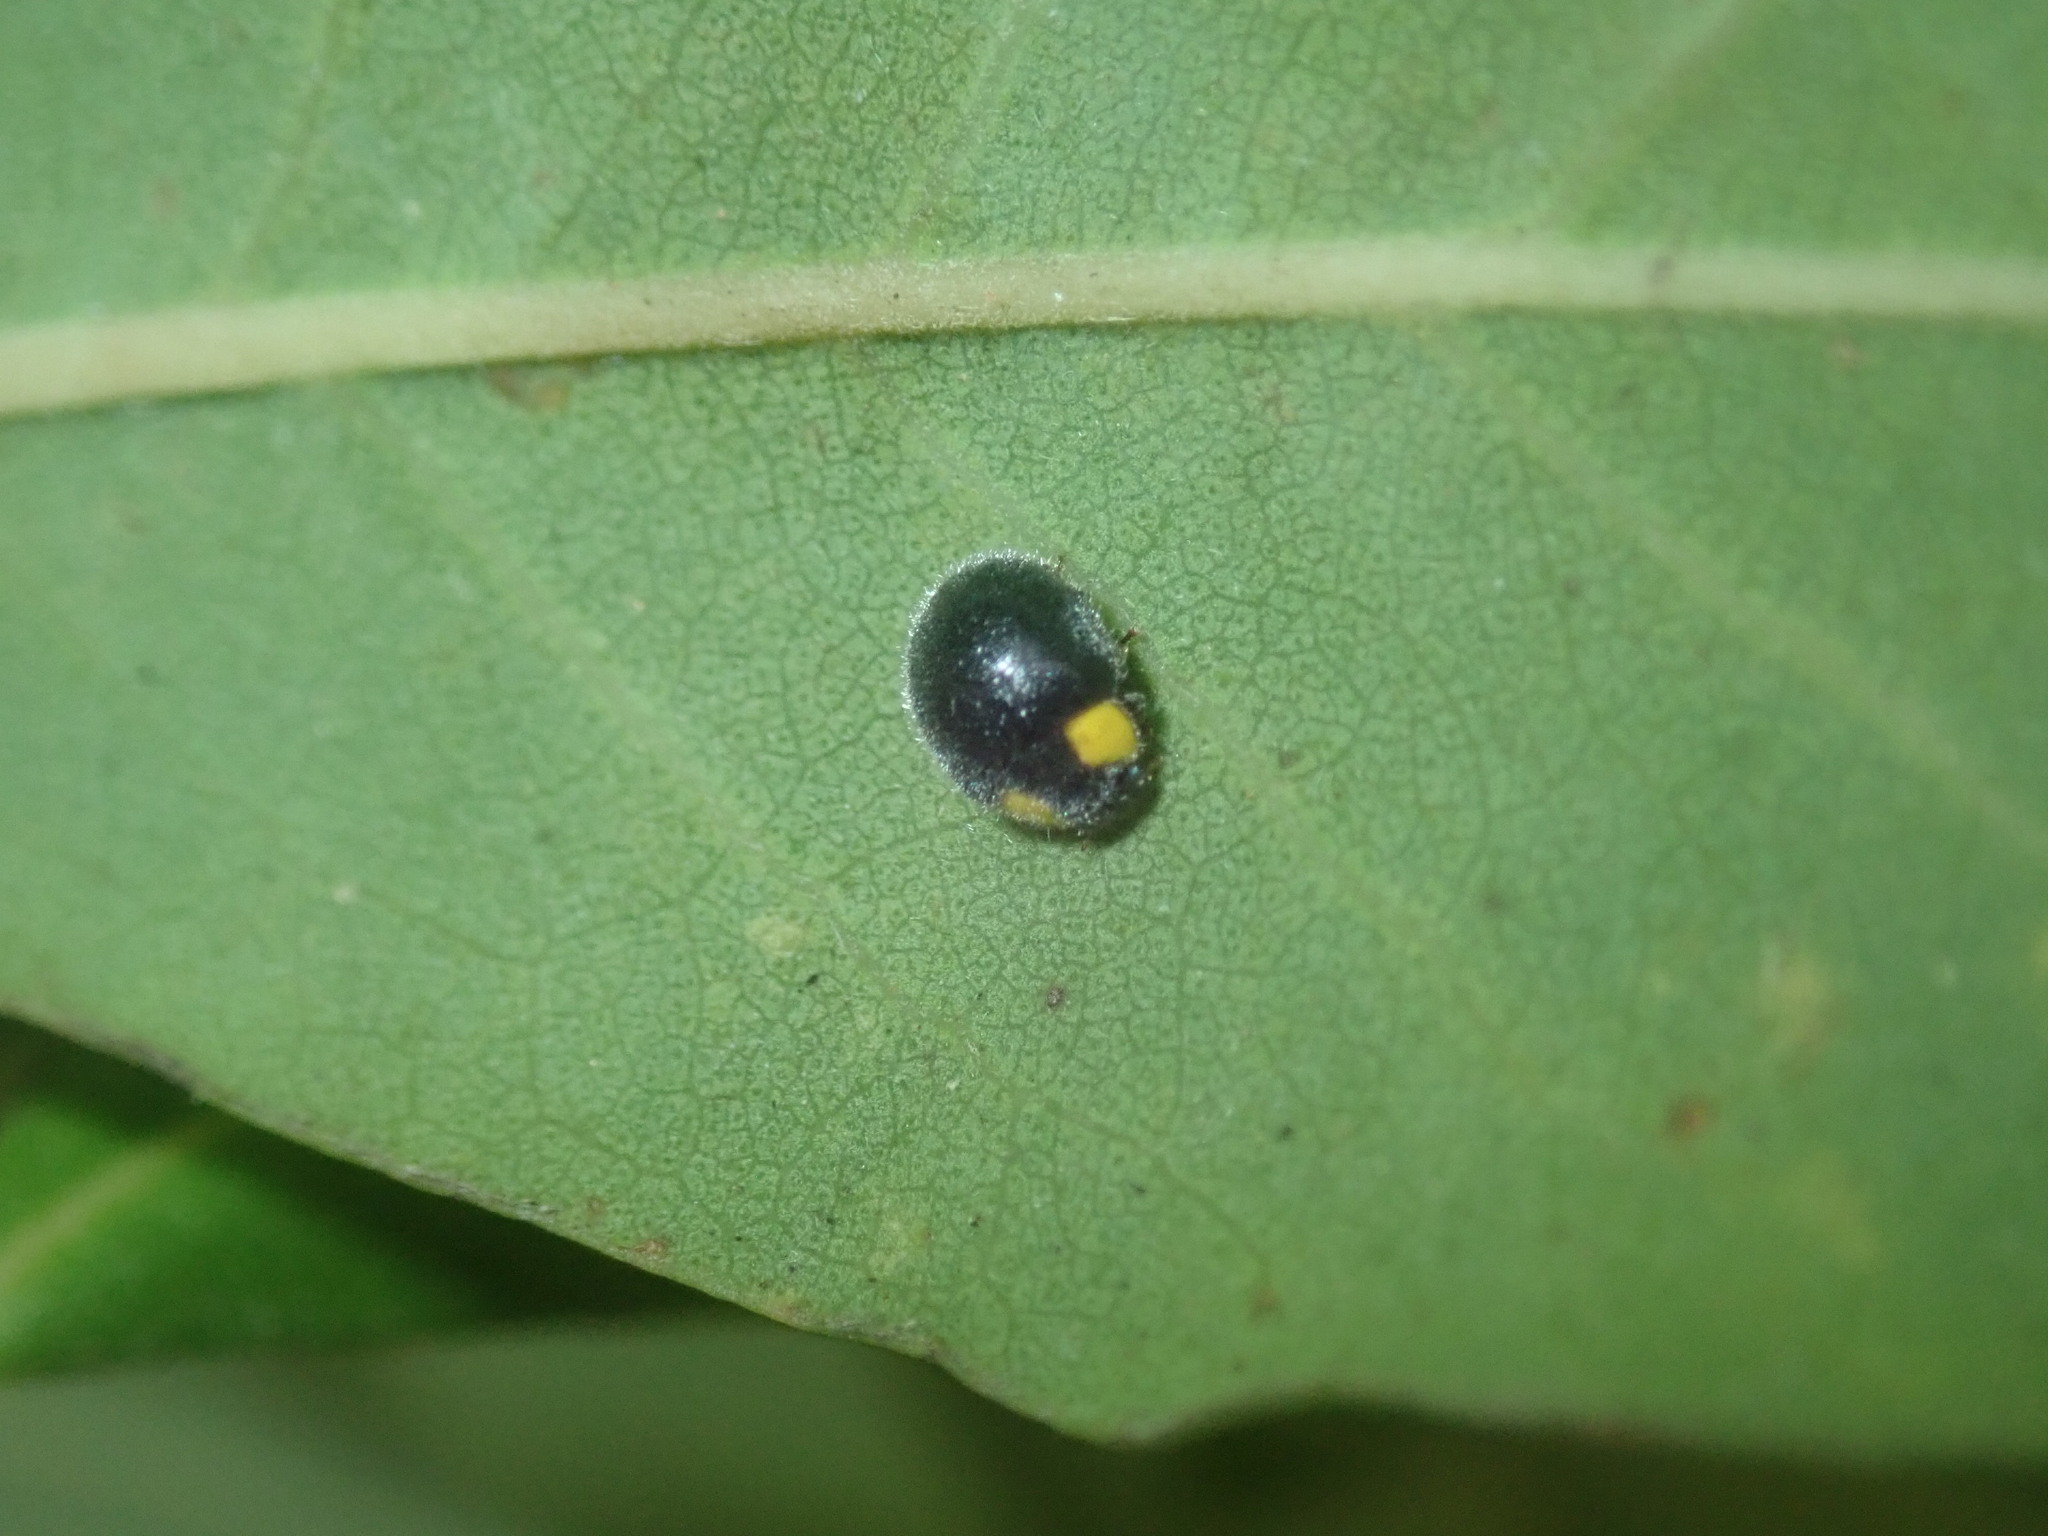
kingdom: Animalia
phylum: Arthropoda
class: Insecta
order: Coleoptera
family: Coccinellidae
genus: Scymnodes
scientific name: Scymnodes lividigaster
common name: Yellowshouldered lady beetle
